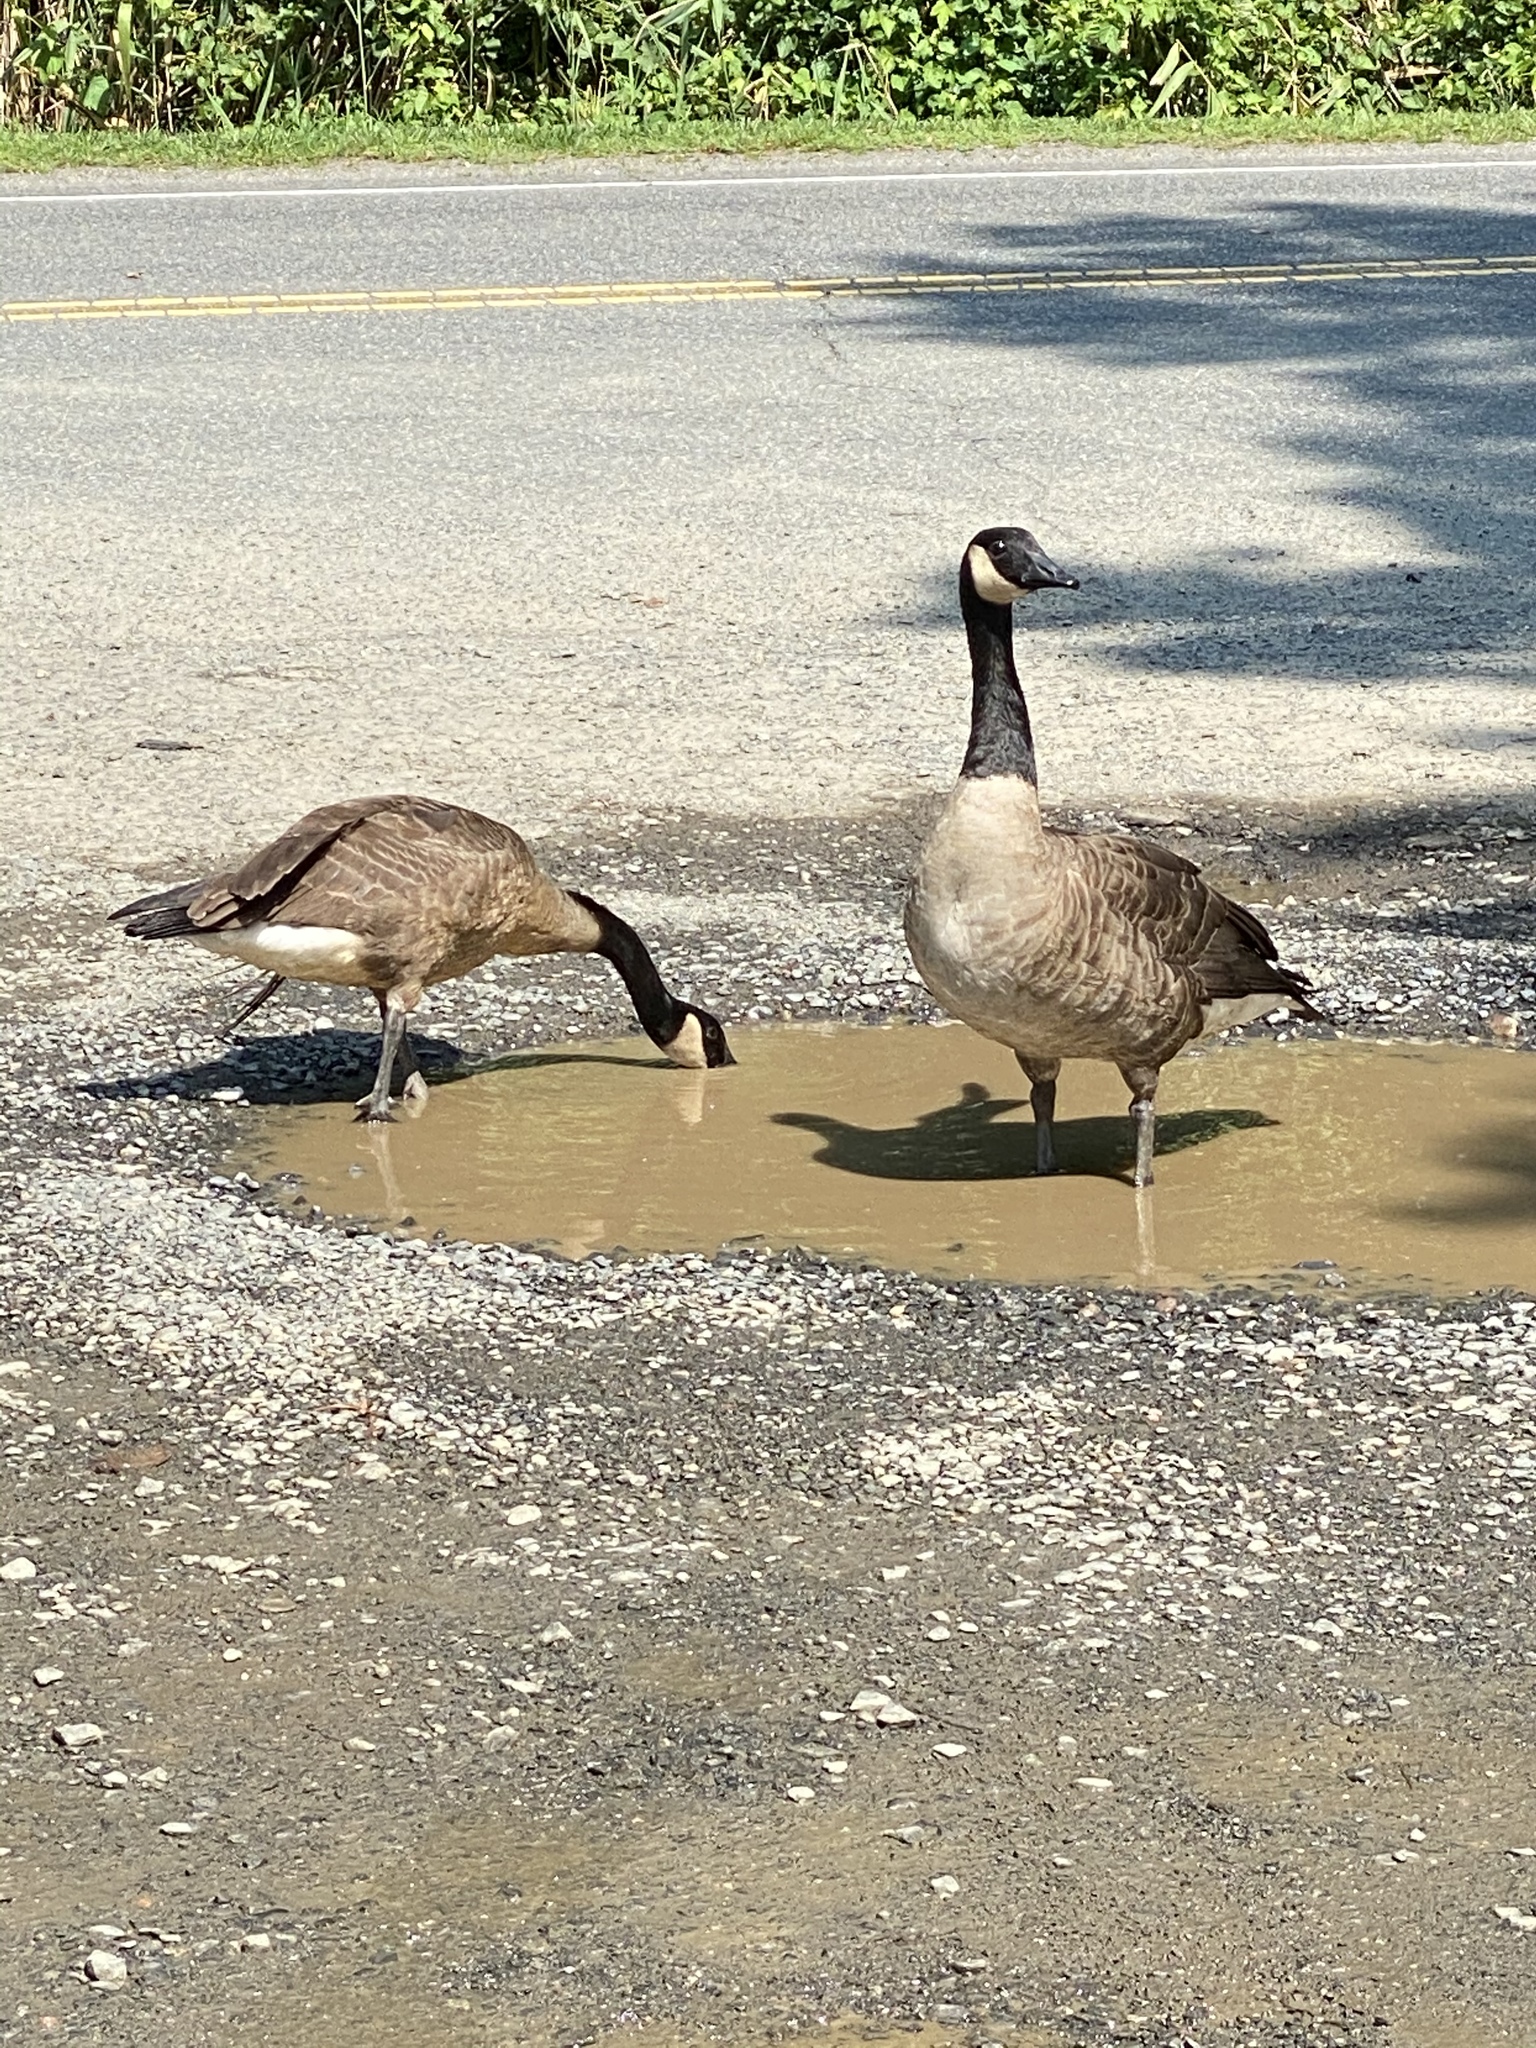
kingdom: Animalia
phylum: Chordata
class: Aves
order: Anseriformes
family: Anatidae
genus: Branta
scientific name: Branta canadensis
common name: Canada goose
